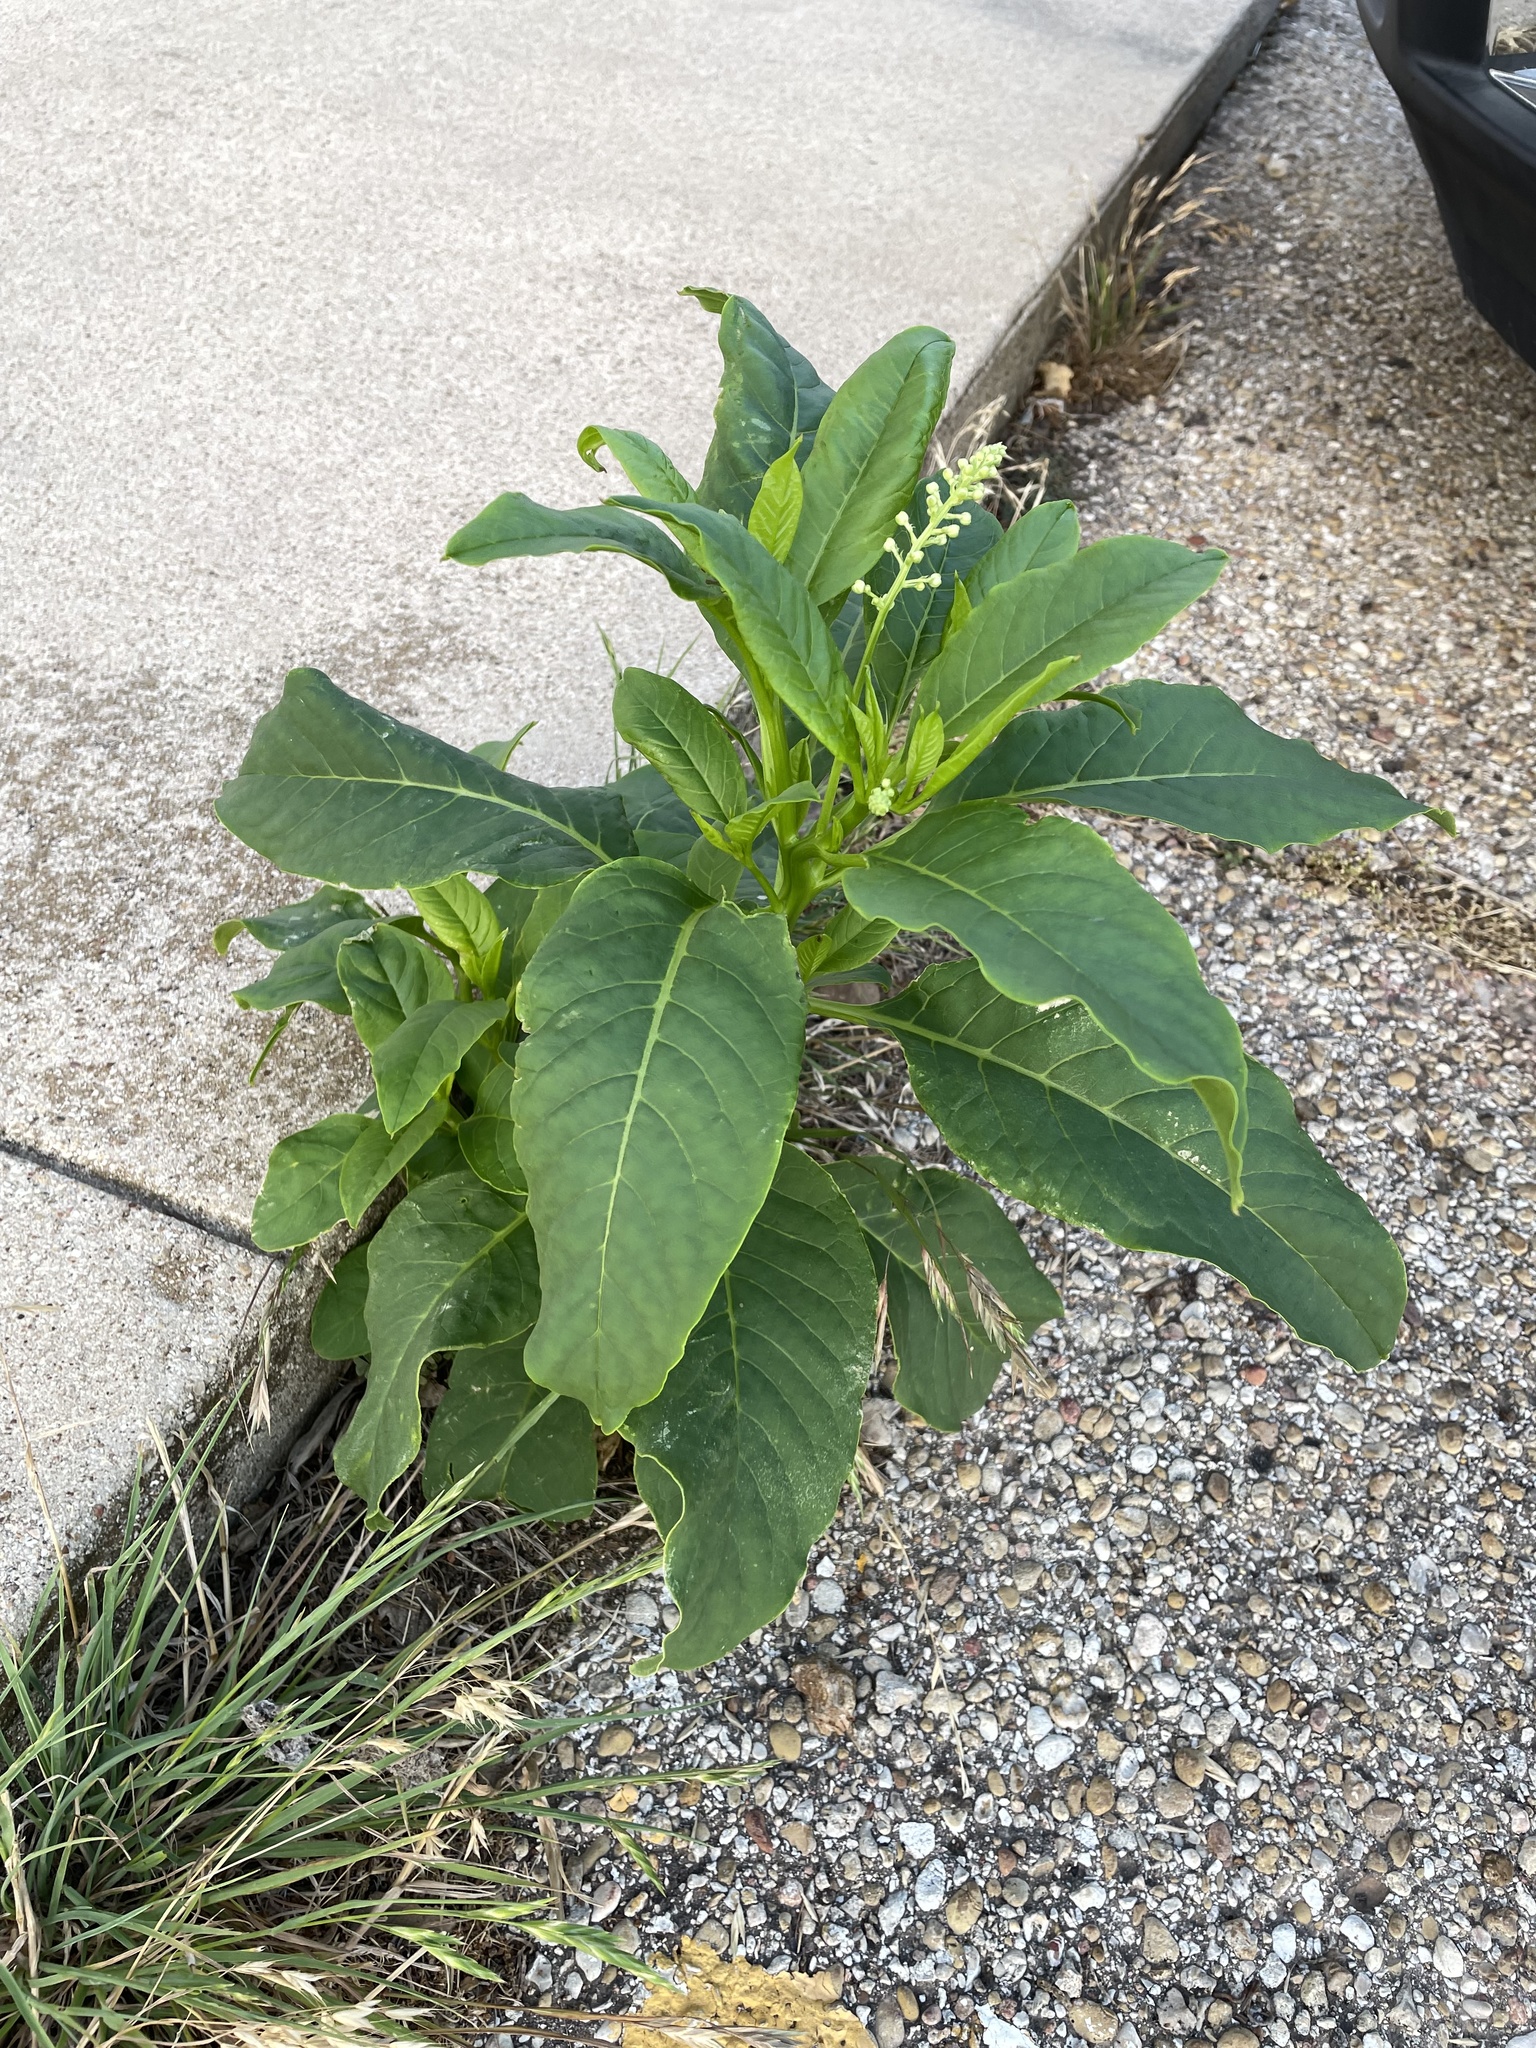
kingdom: Plantae
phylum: Tracheophyta
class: Magnoliopsida
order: Caryophyllales
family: Phytolaccaceae
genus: Phytolacca
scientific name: Phytolacca americana
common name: American pokeweed
